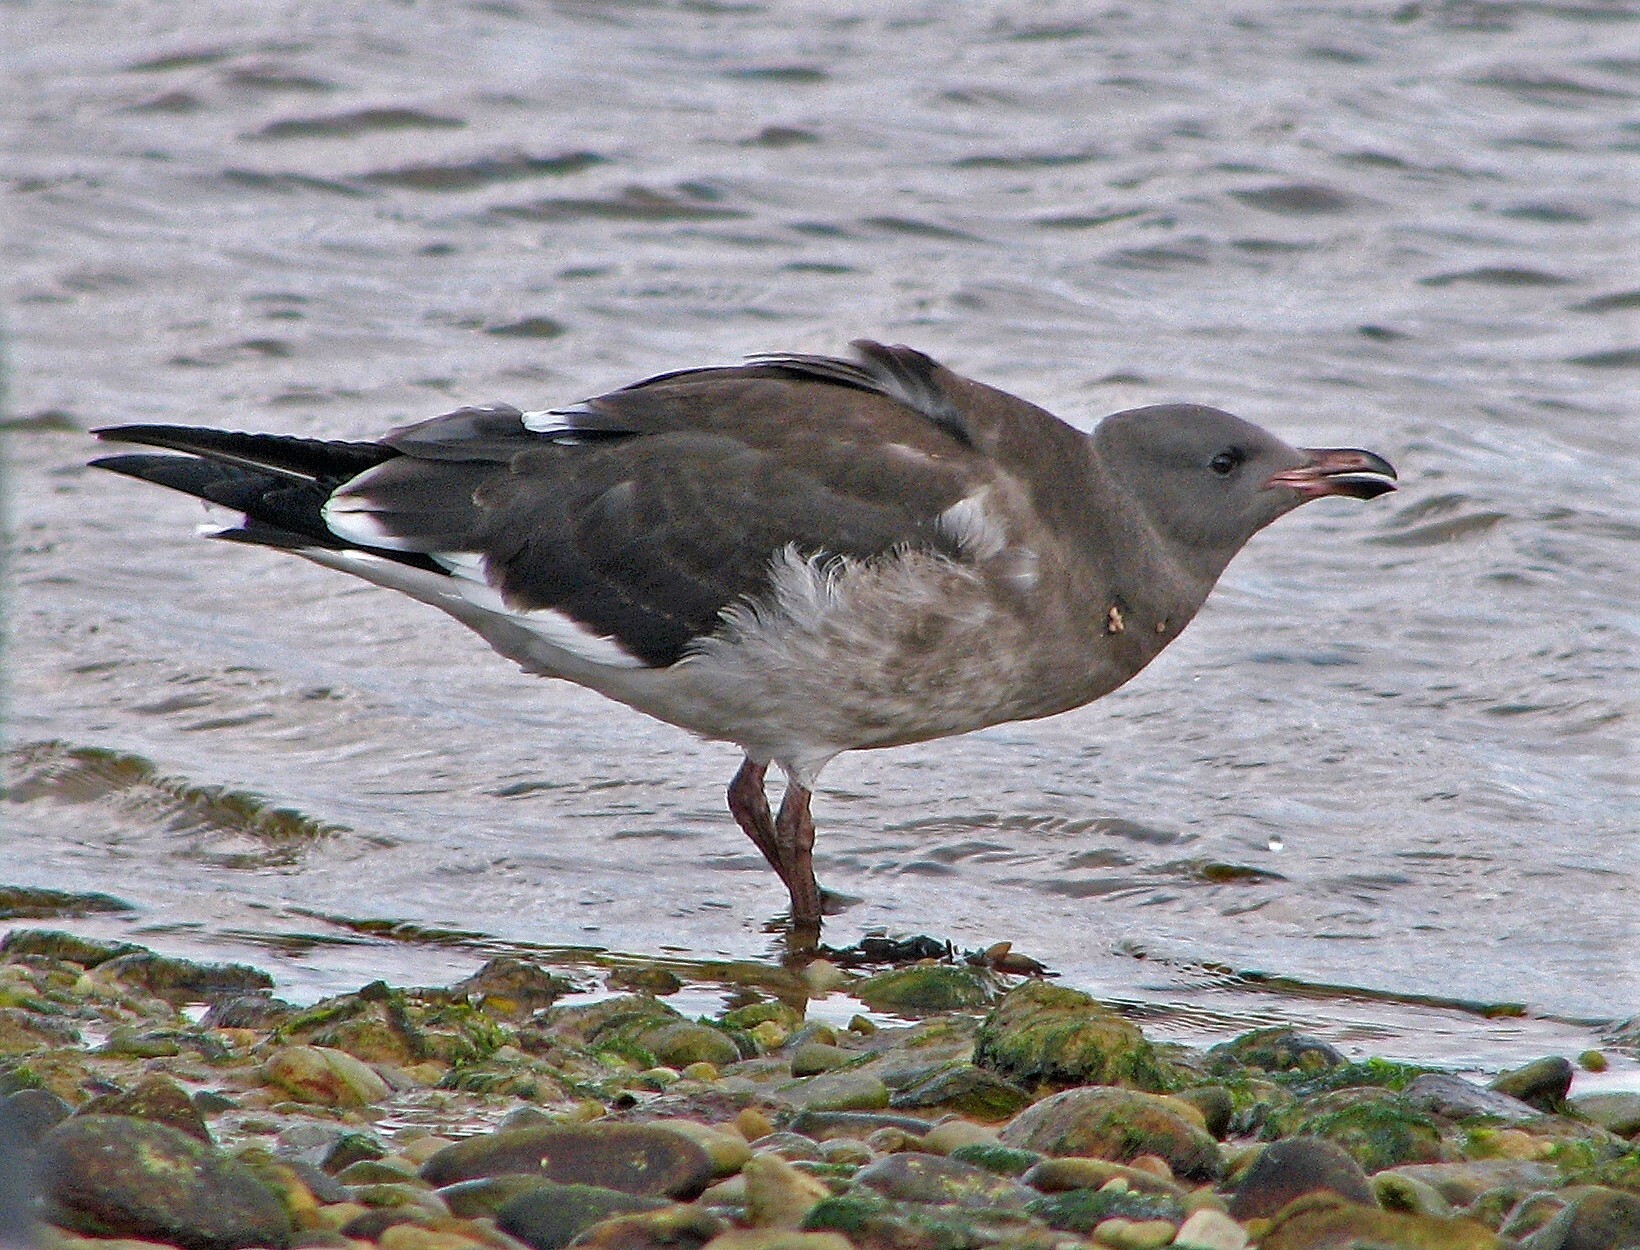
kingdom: Animalia
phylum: Chordata
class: Aves
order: Charadriiformes
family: Laridae
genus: Leucophaeus
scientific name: Leucophaeus scoresbii
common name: Dolphin gull
